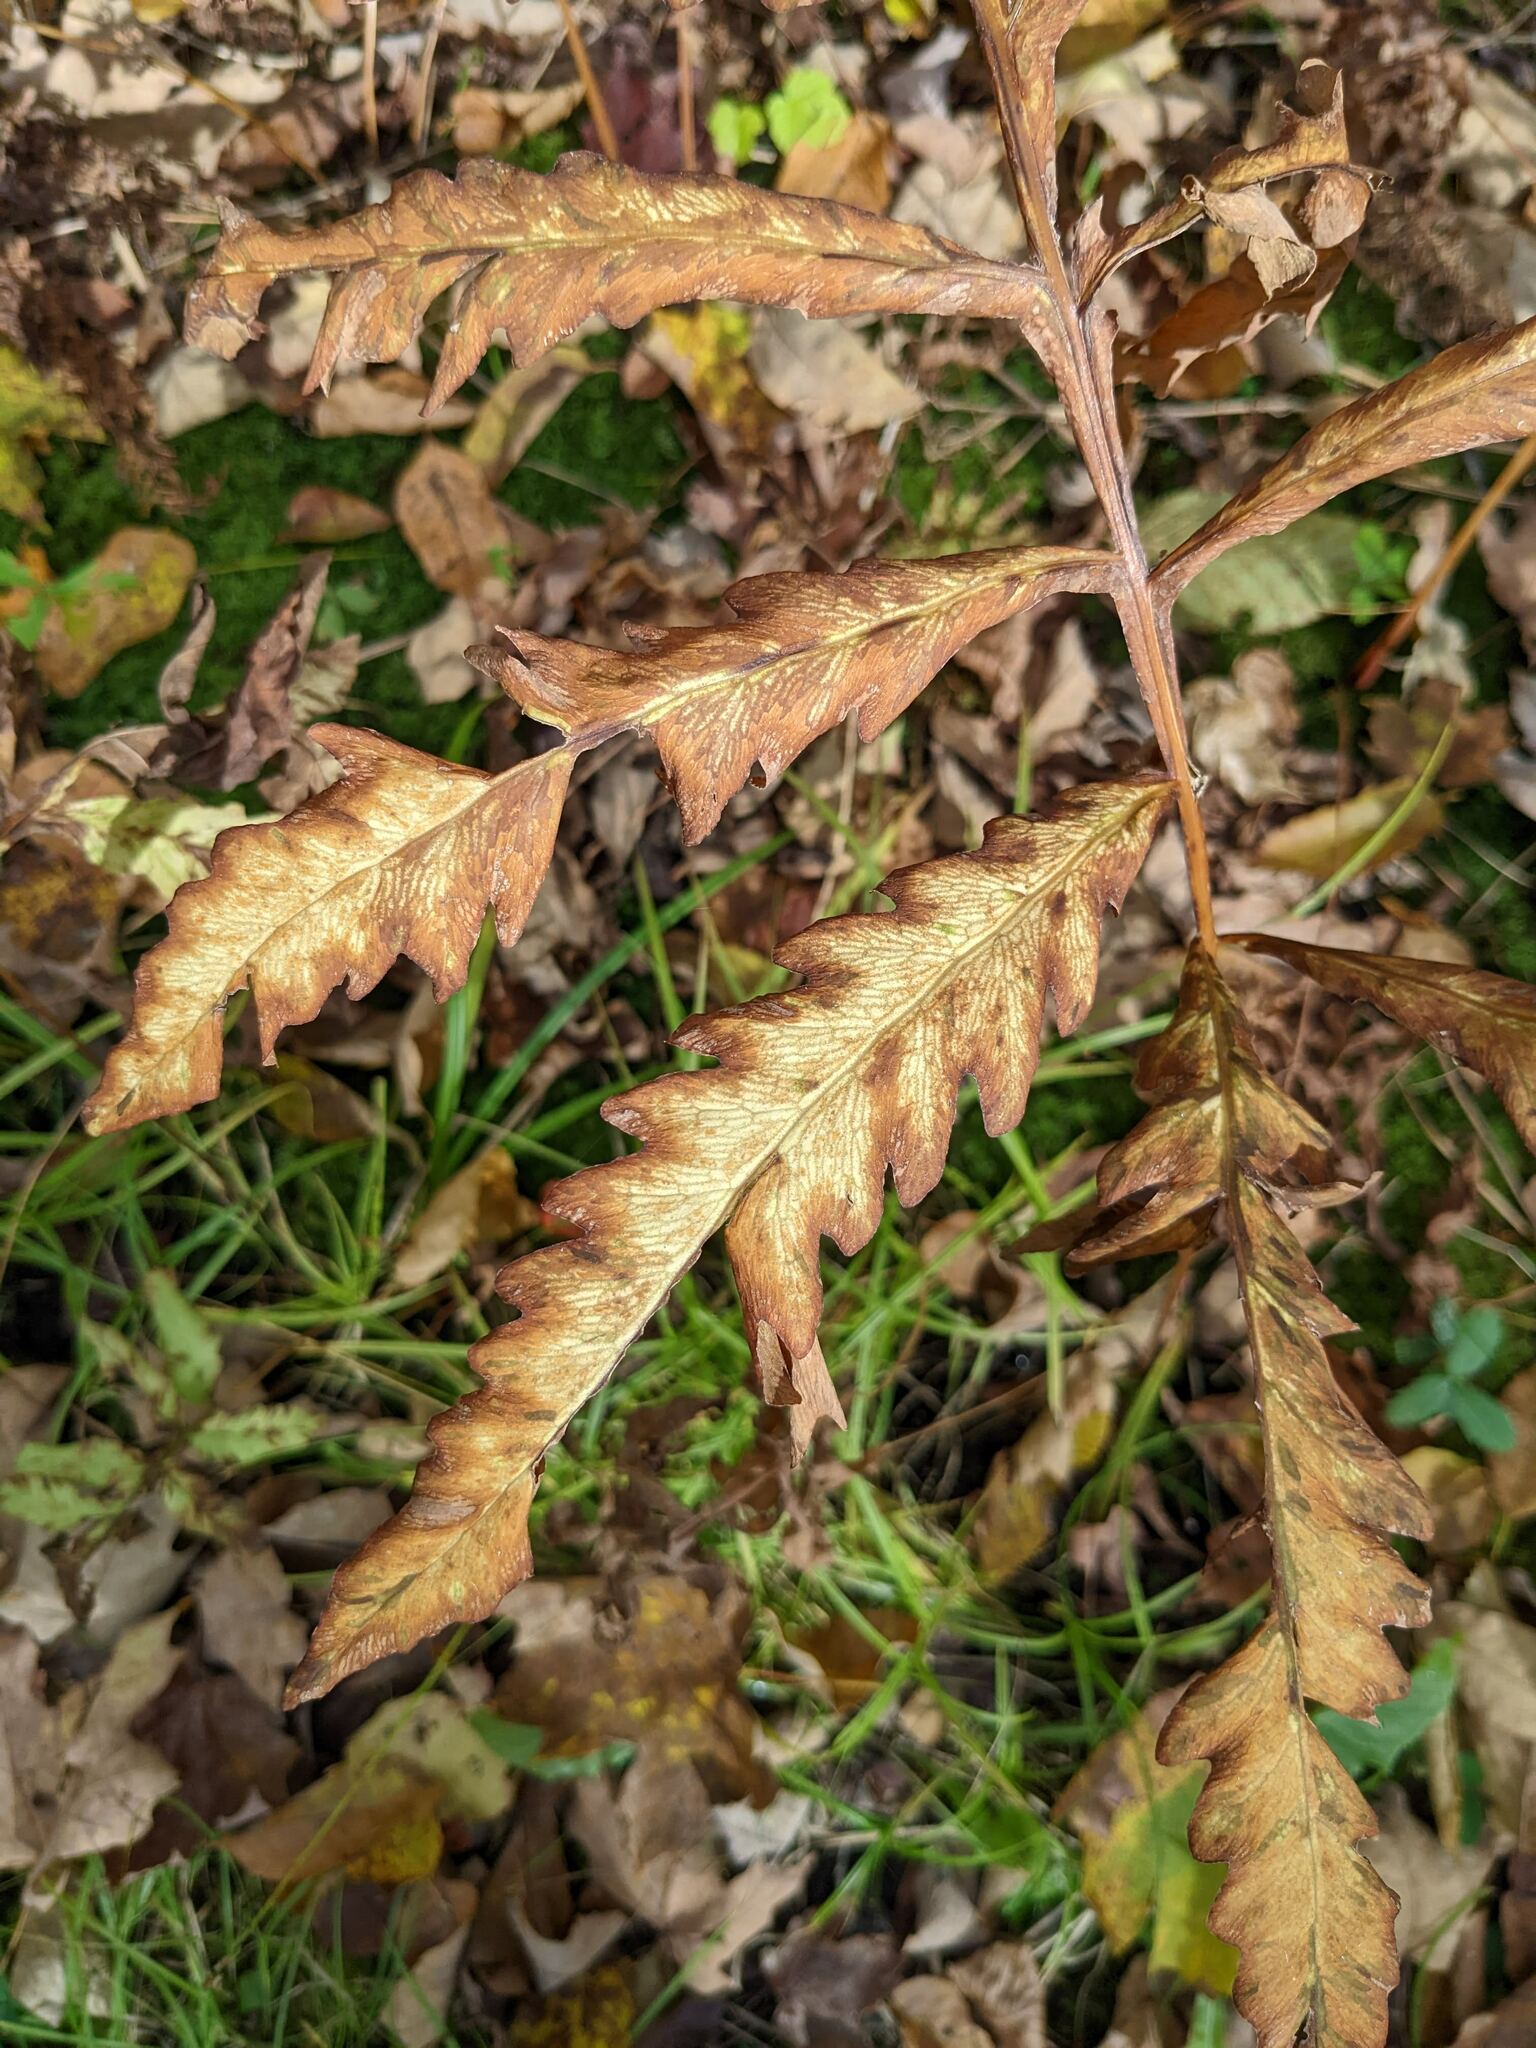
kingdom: Plantae
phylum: Tracheophyta
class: Polypodiopsida
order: Polypodiales
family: Onocleaceae
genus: Onoclea
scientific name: Onoclea sensibilis
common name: Sensitive fern
